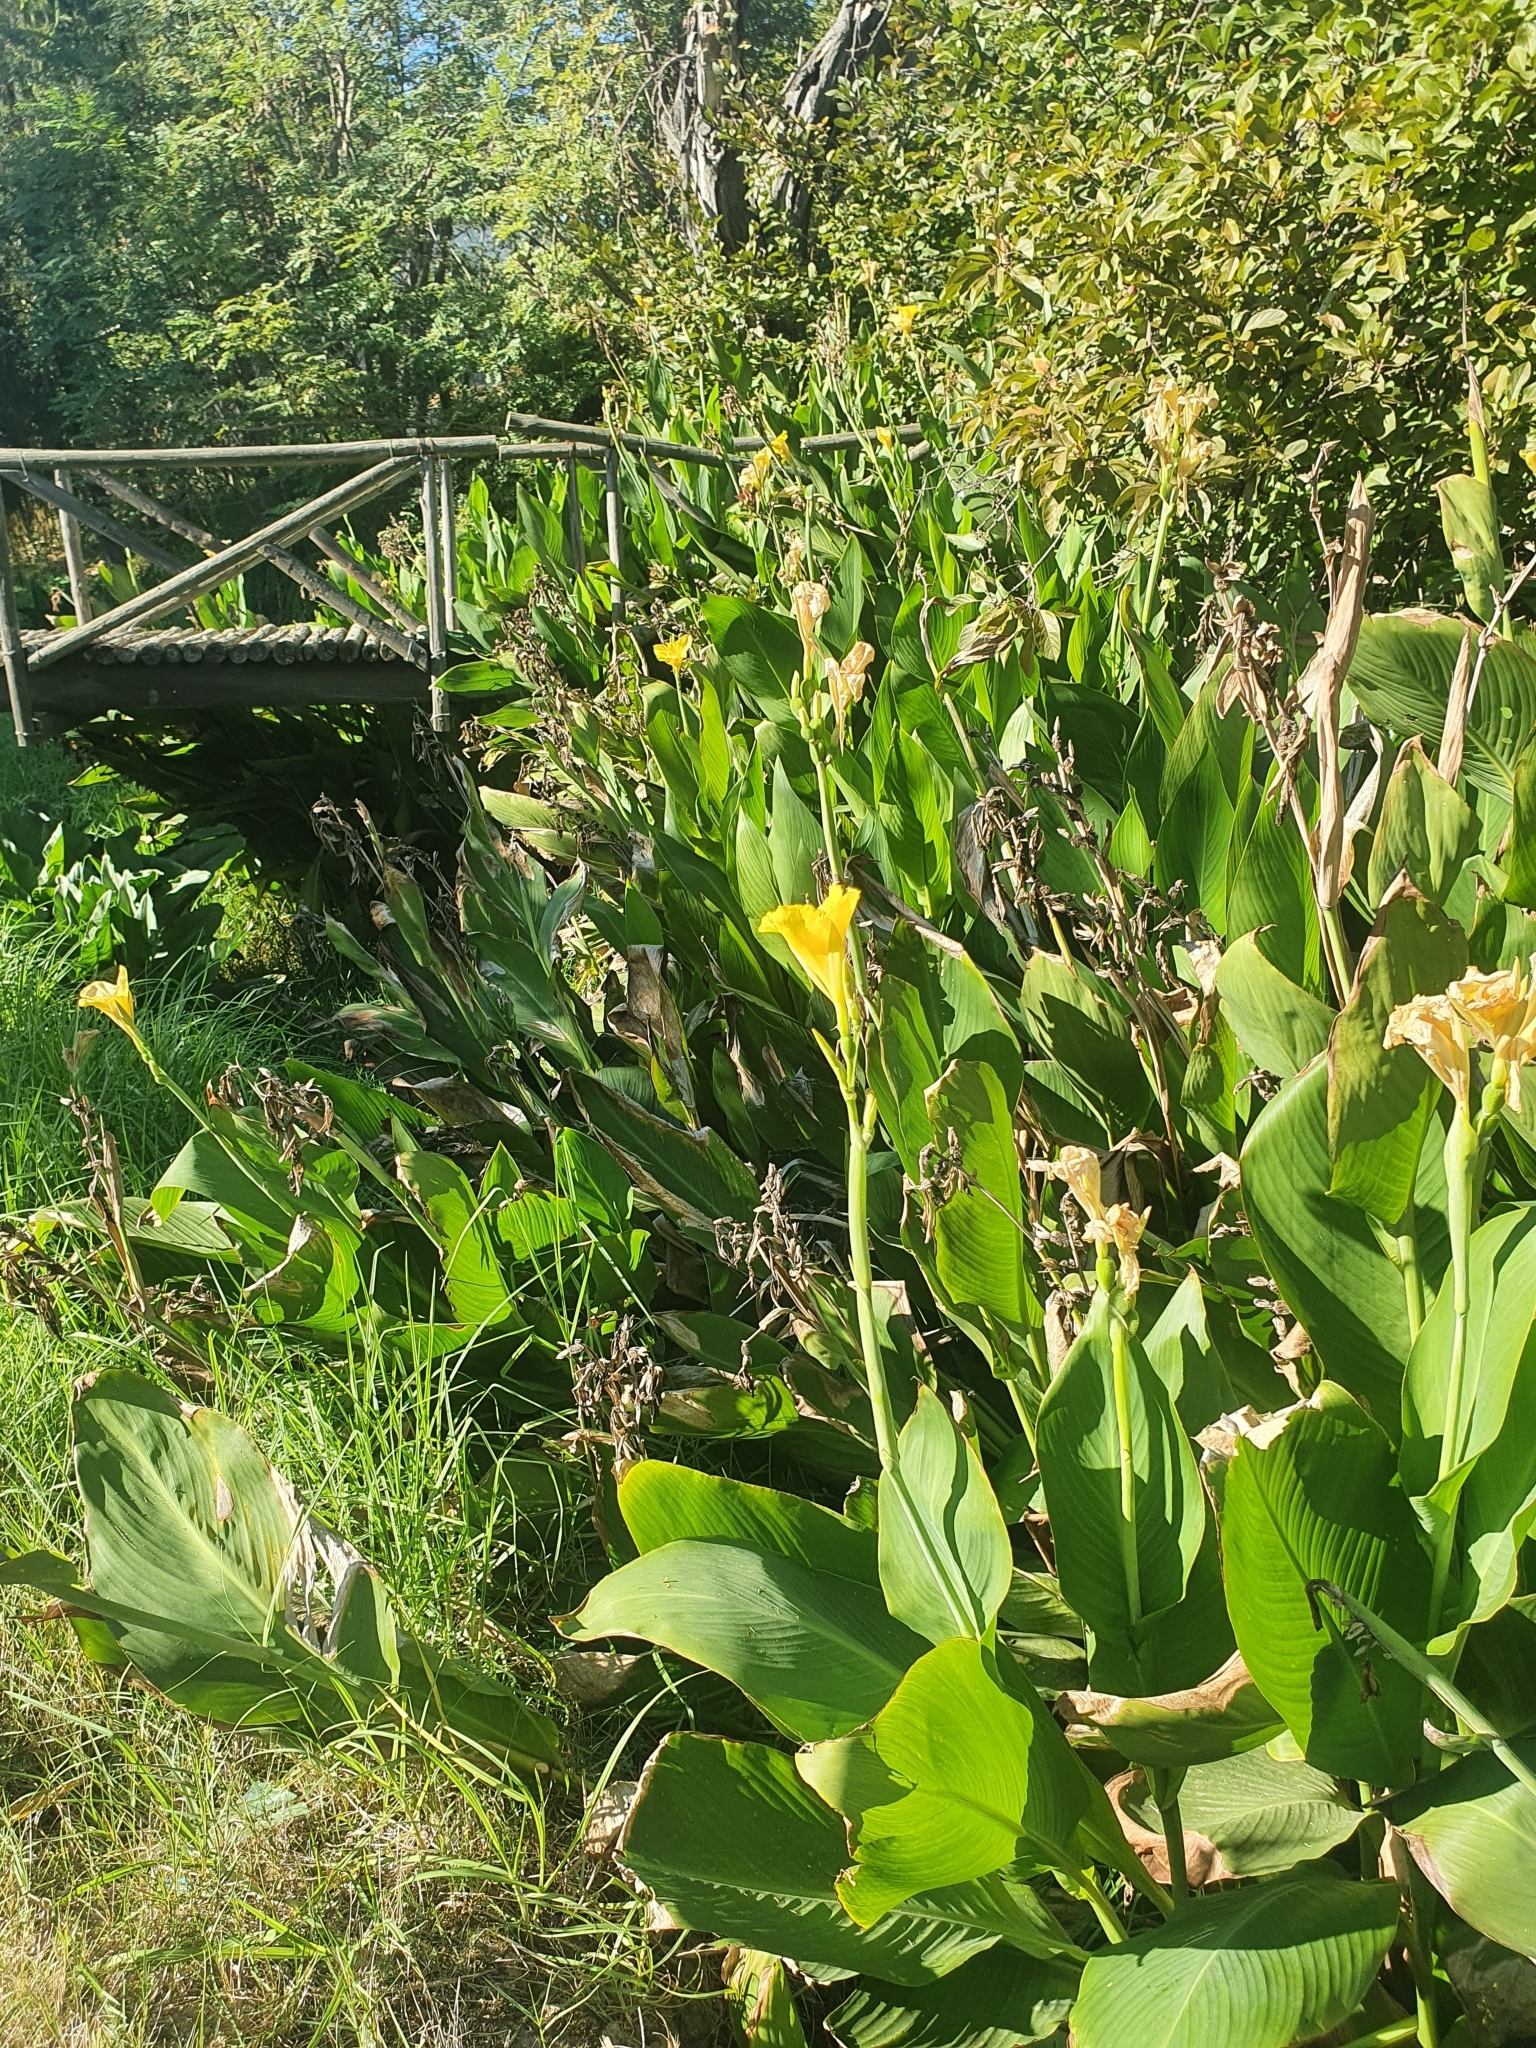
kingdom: Plantae
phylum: Tracheophyta
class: Liliopsida
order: Zingiberales
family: Cannaceae
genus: Canna
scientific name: Canna hybrida
